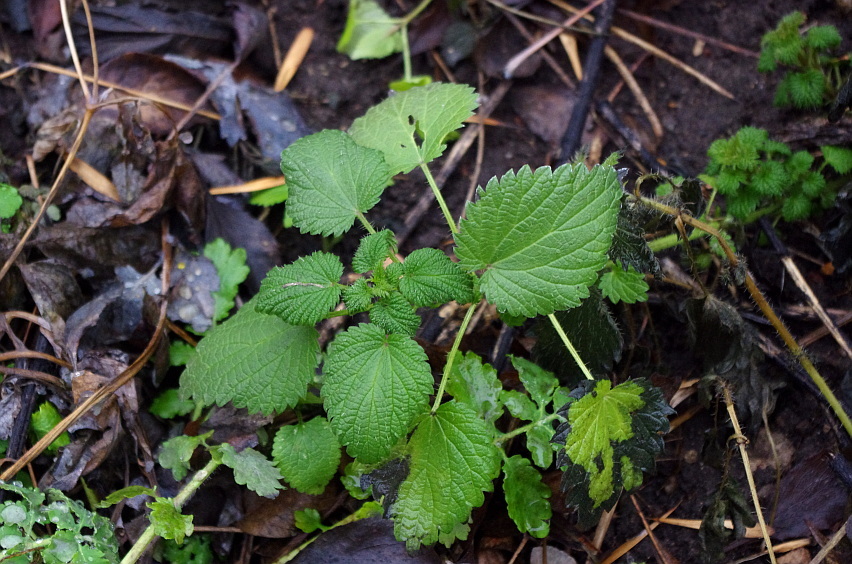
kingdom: Plantae
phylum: Tracheophyta
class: Magnoliopsida
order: Rosales
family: Urticaceae
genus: Urtica
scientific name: Urtica dioica
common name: Common nettle
